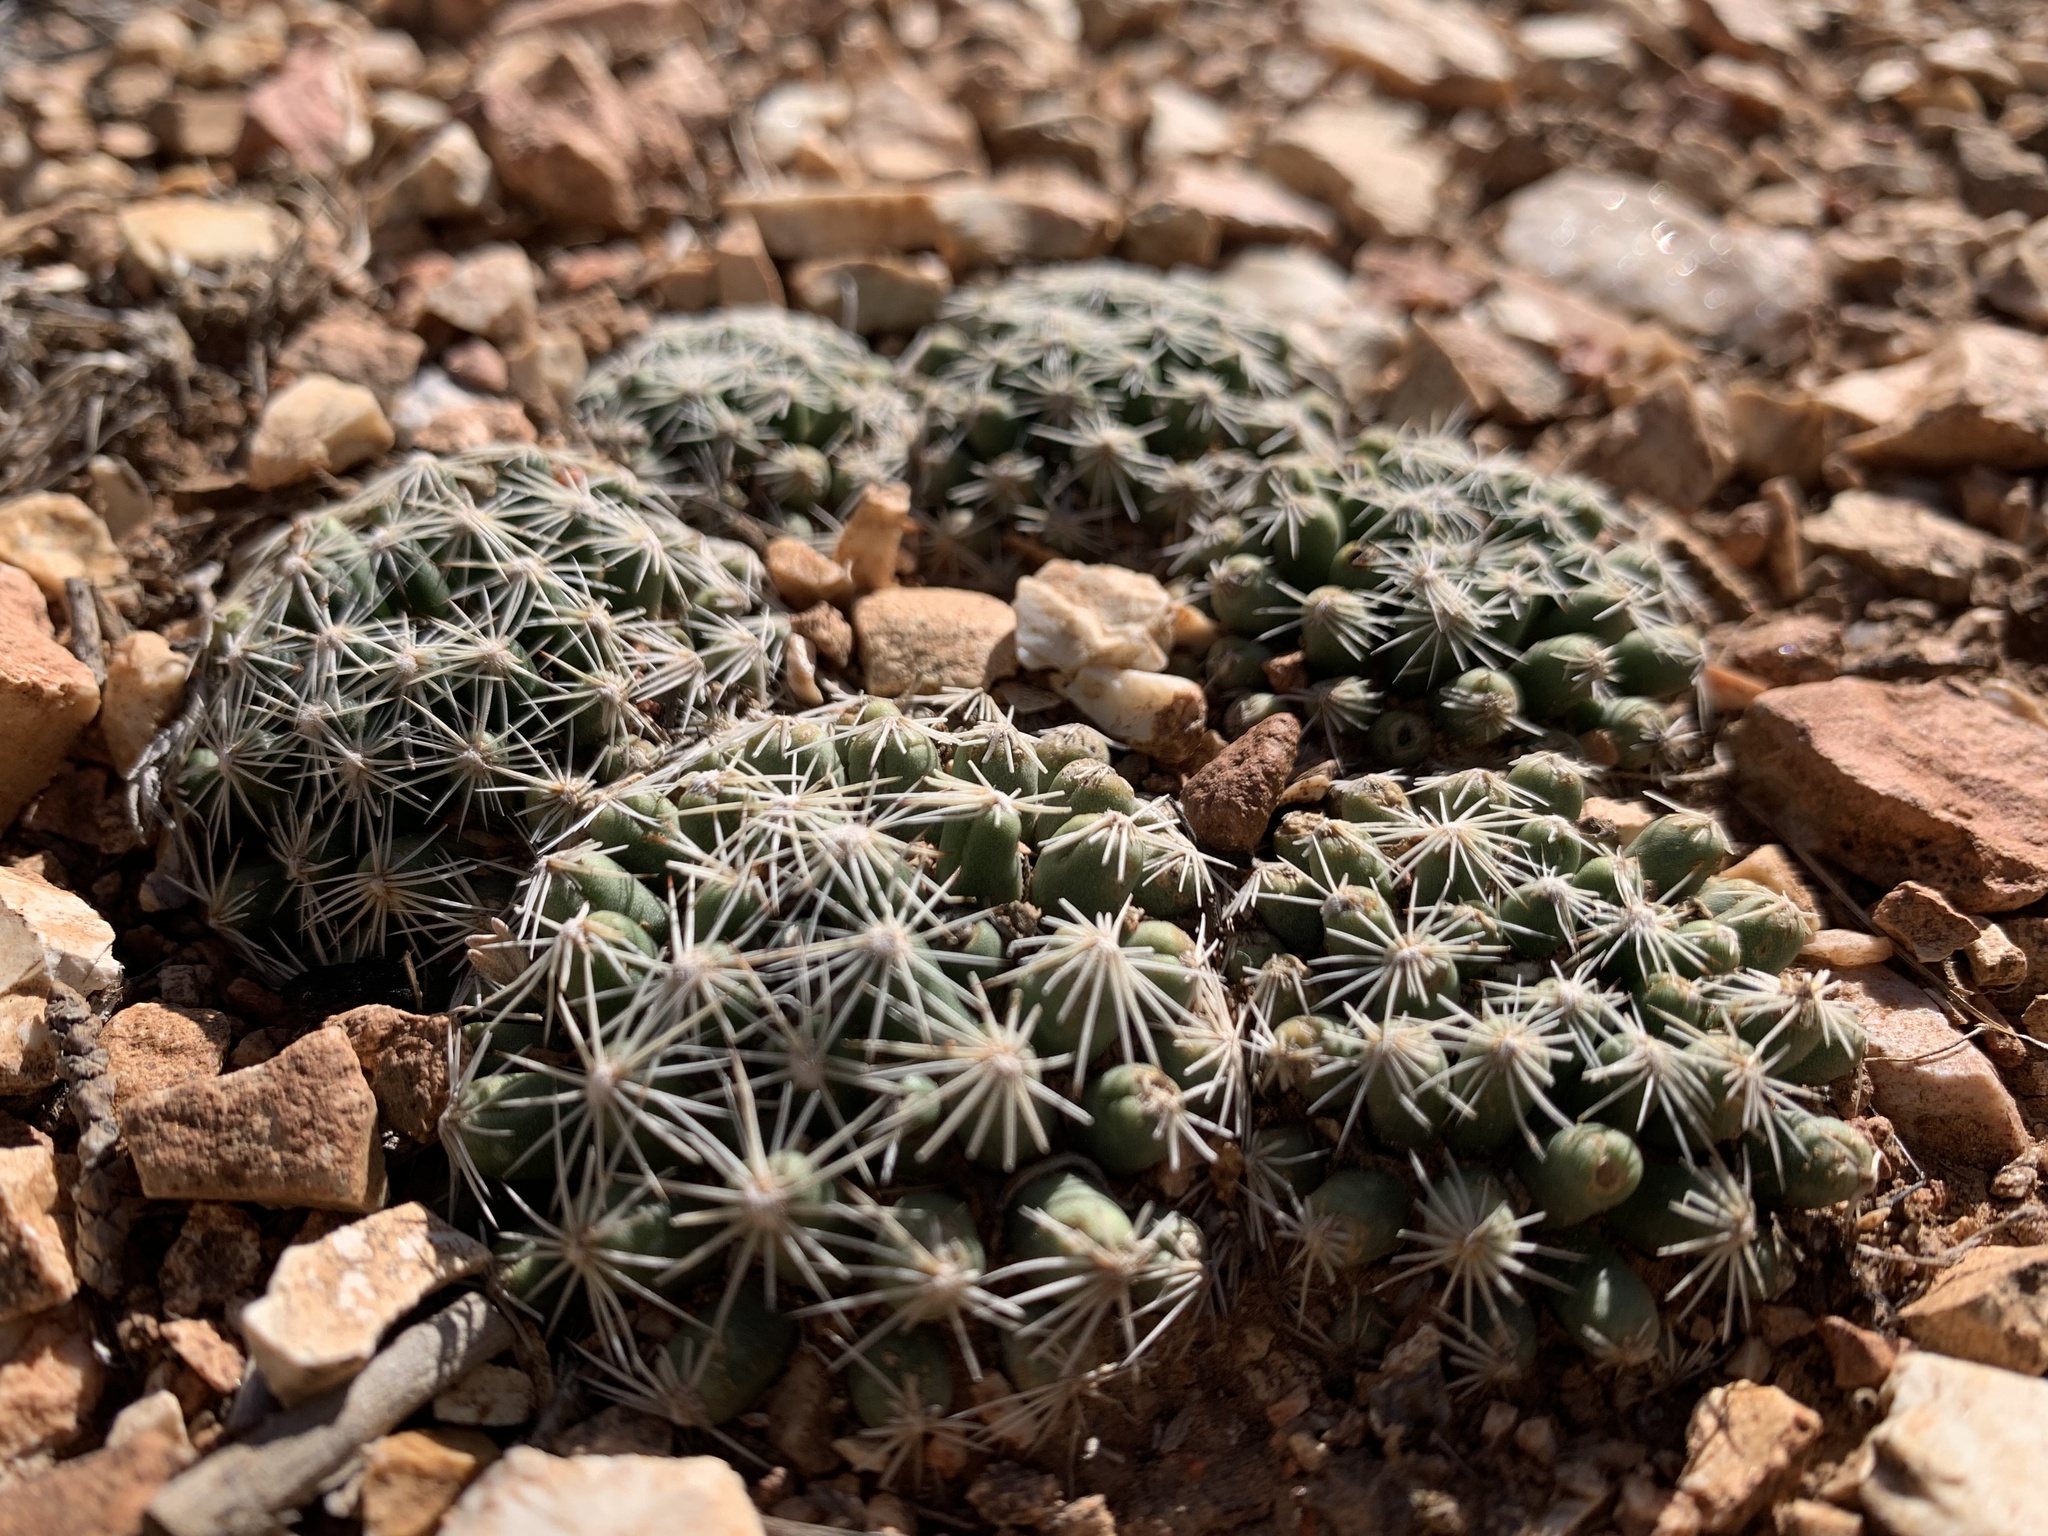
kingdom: Plantae
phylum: Tracheophyta
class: Magnoliopsida
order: Caryophyllales
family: Cactaceae
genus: Pelecyphora
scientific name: Pelecyphora missouriensis
